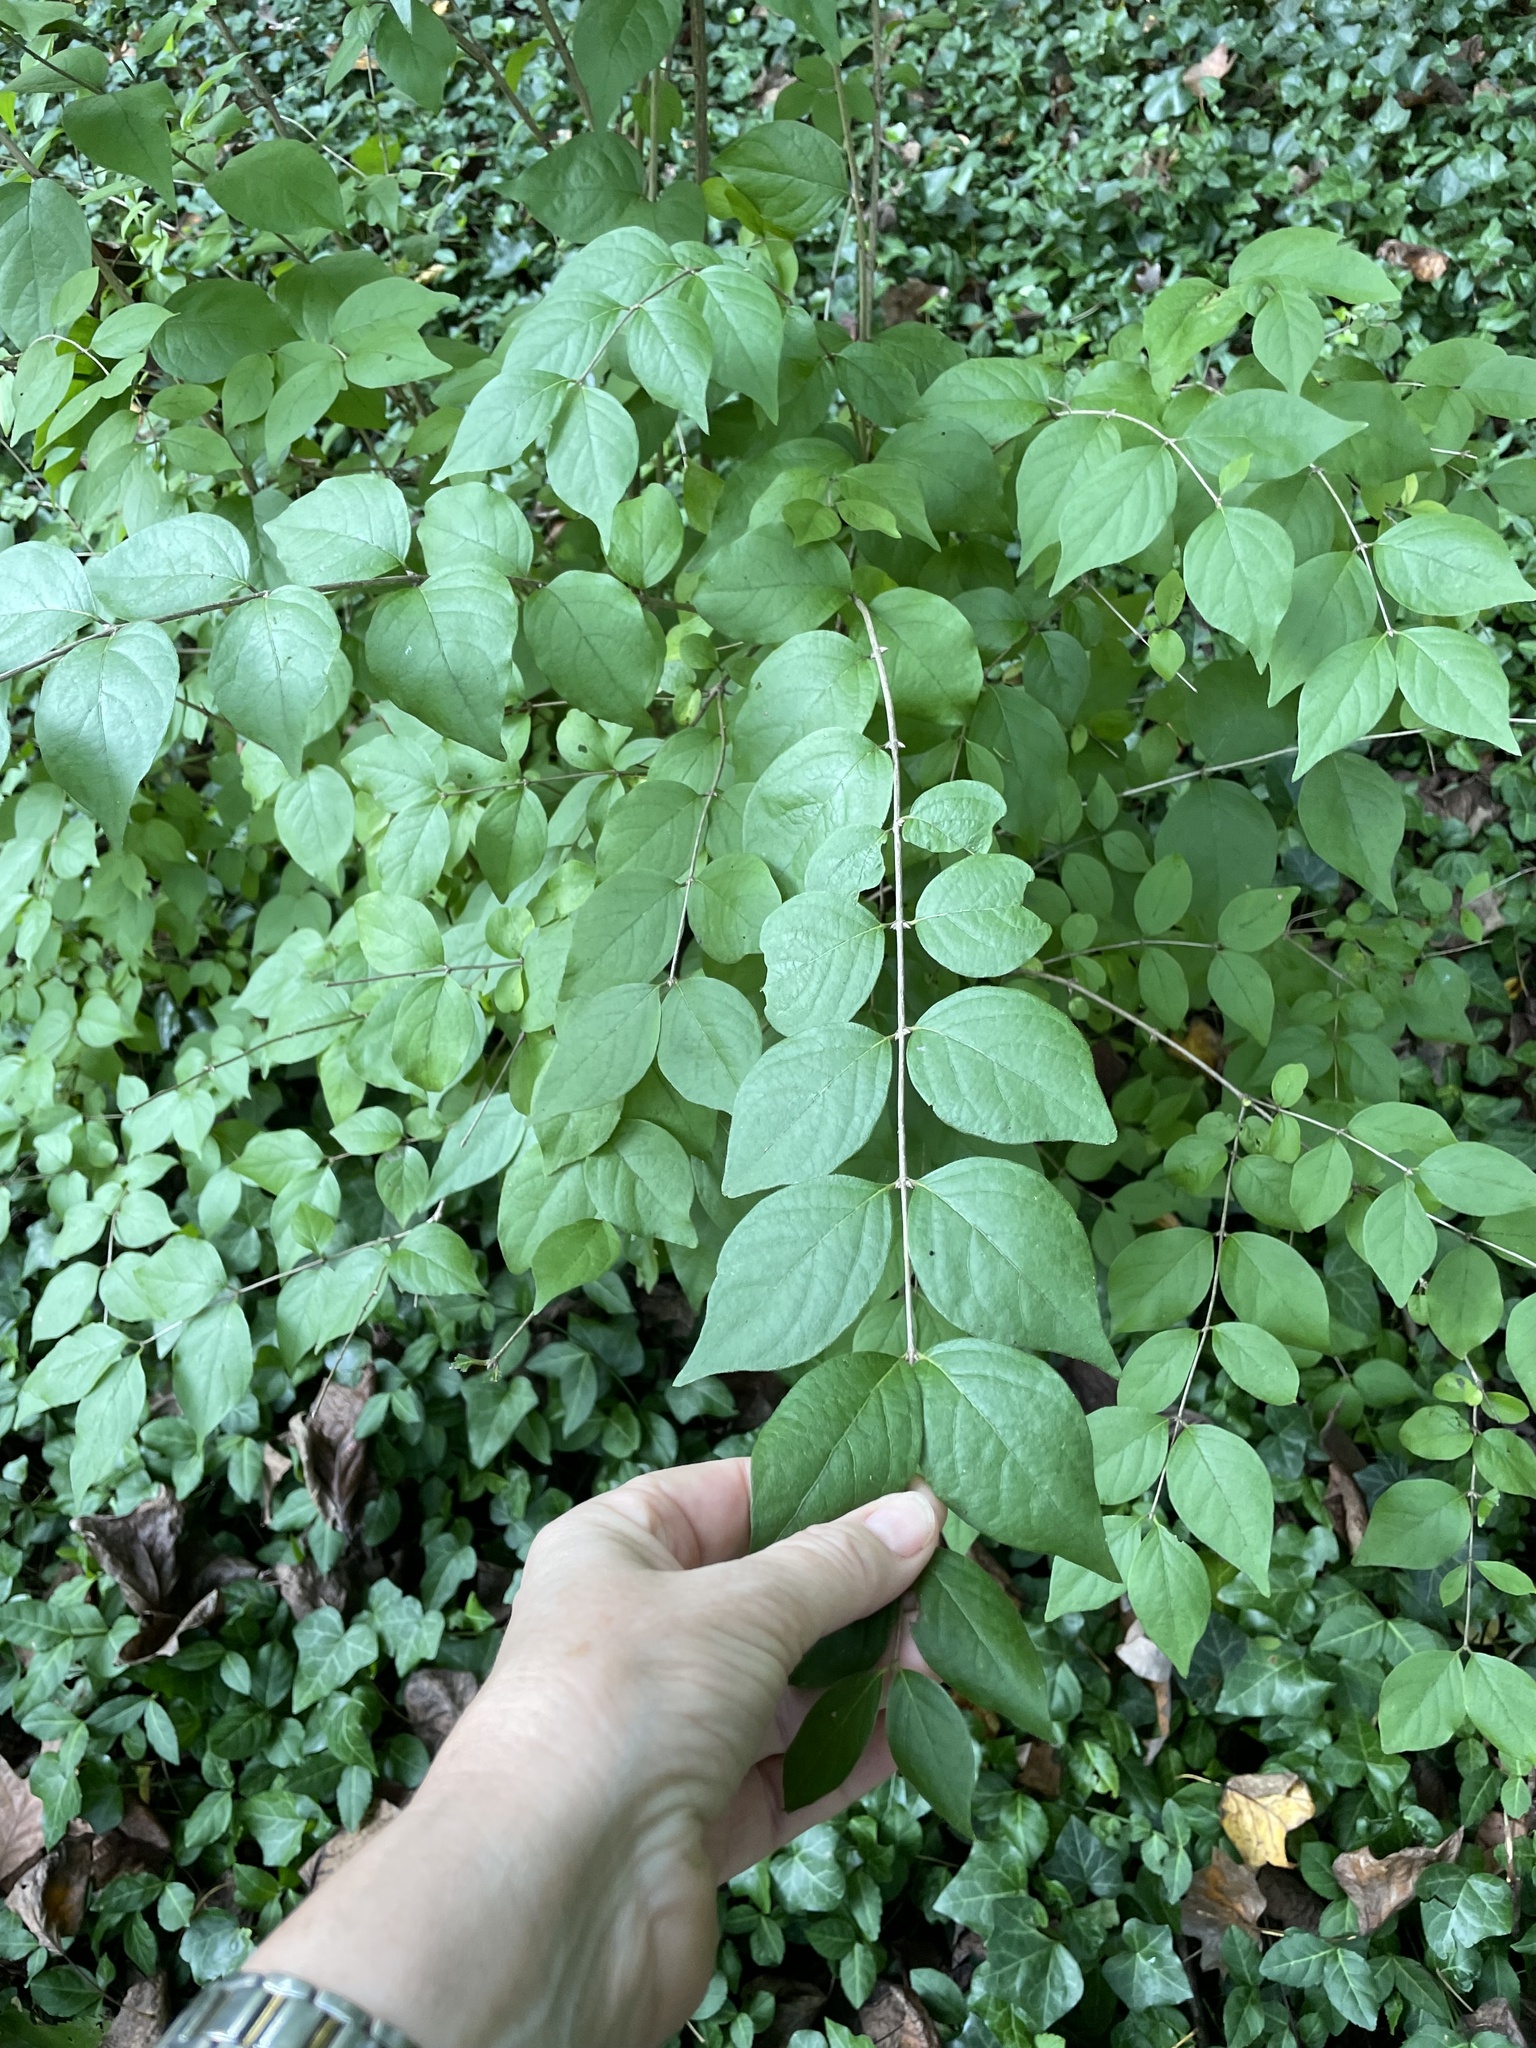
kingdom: Plantae
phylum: Tracheophyta
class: Magnoliopsida
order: Dipsacales
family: Caprifoliaceae
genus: Lonicera
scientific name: Lonicera maackii
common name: Amur honeysuckle
